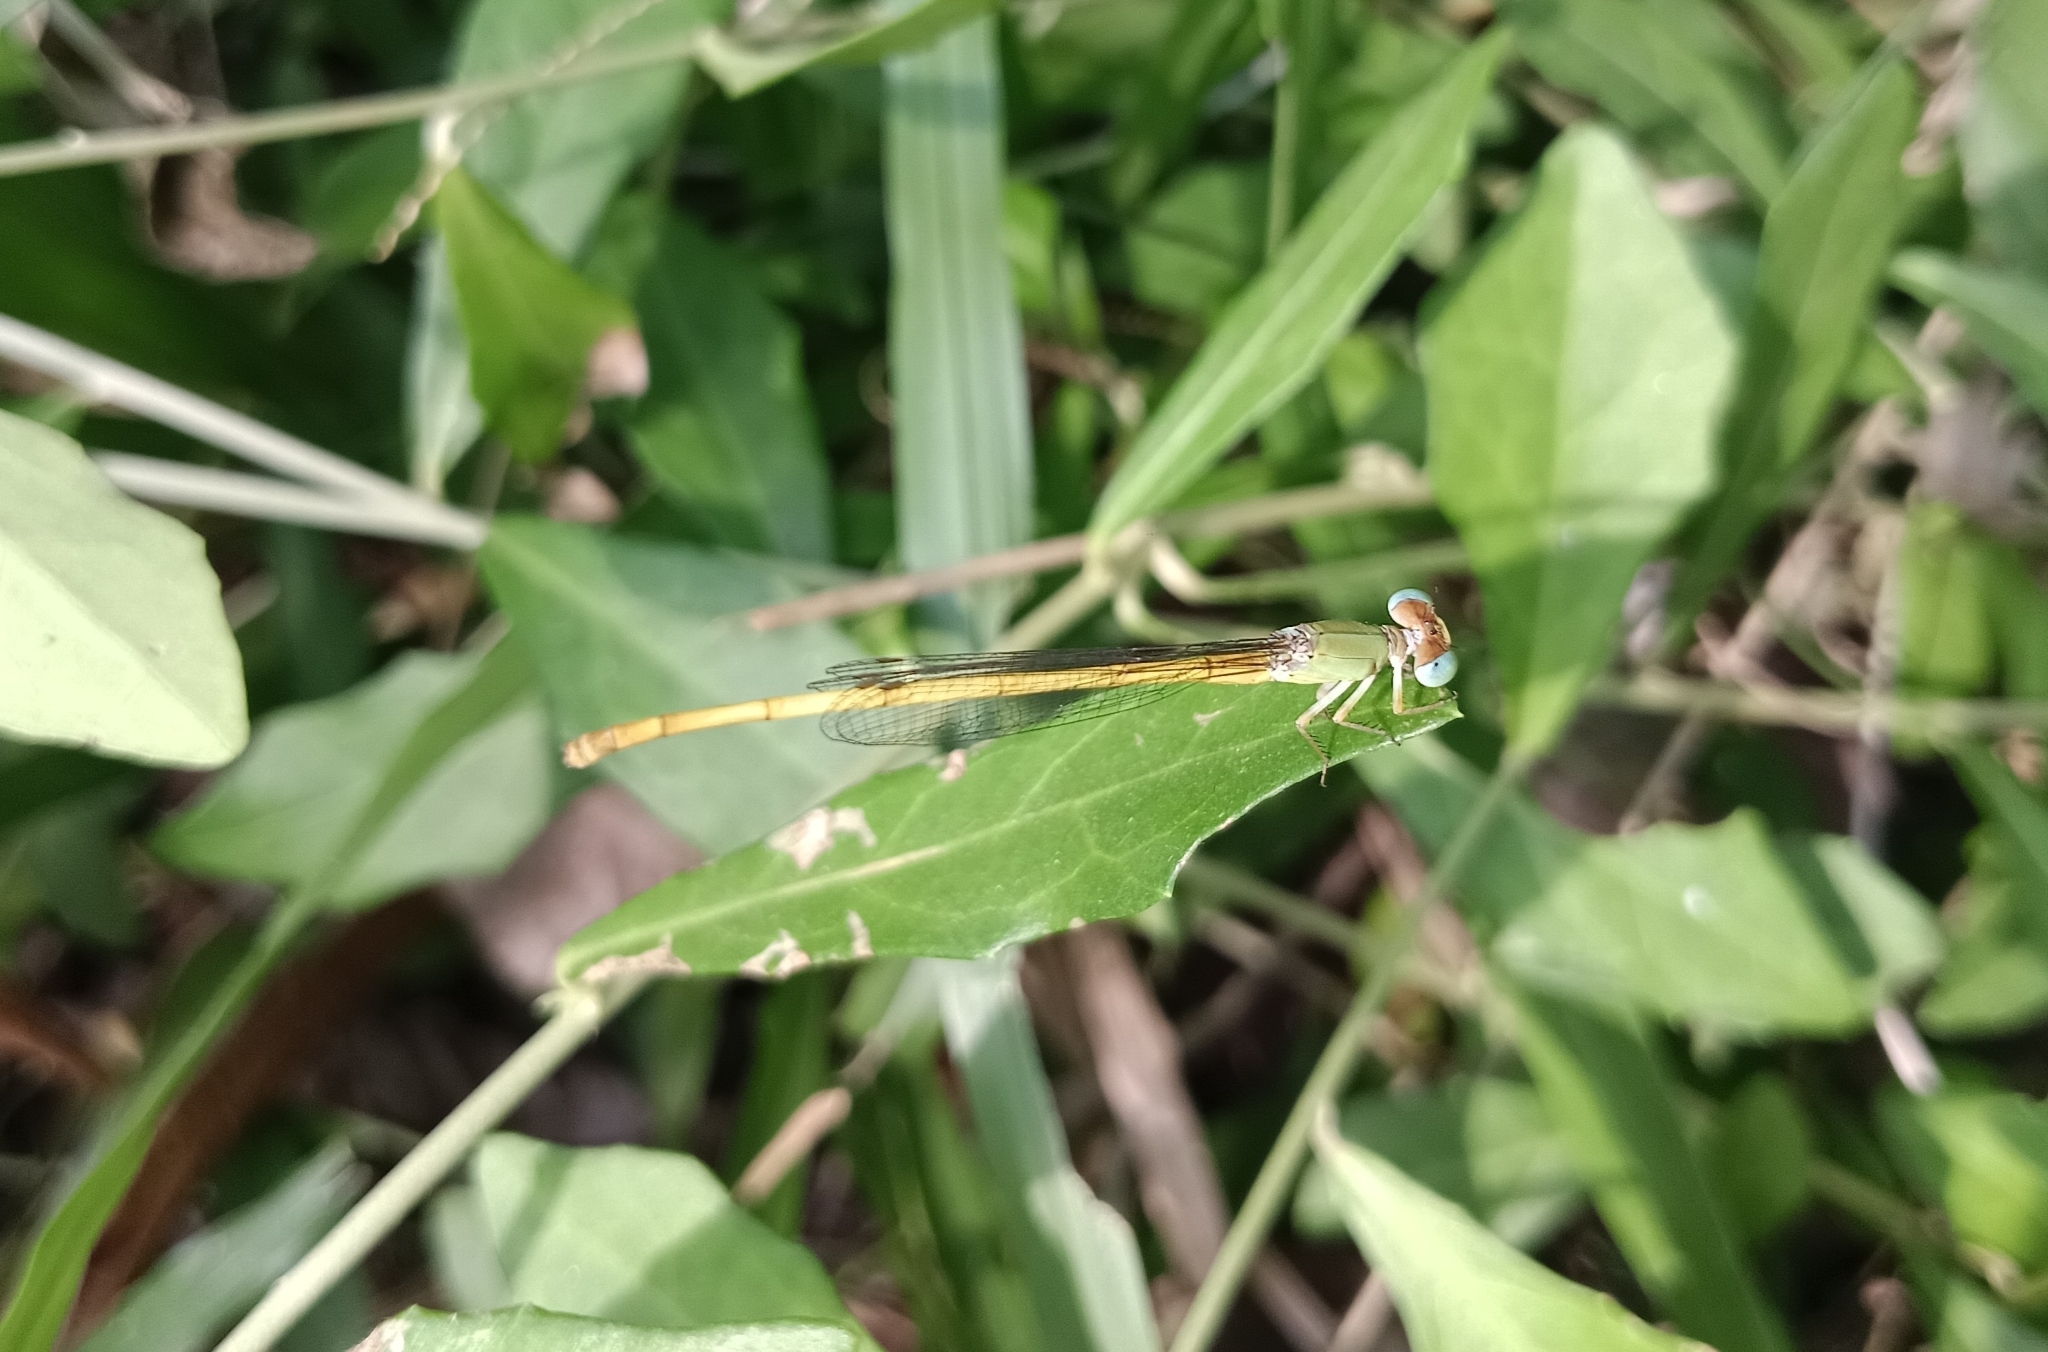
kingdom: Animalia
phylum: Arthropoda
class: Insecta
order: Odonata
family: Coenagrionidae
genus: Ceriagrion
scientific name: Ceriagrion coromandelianum
